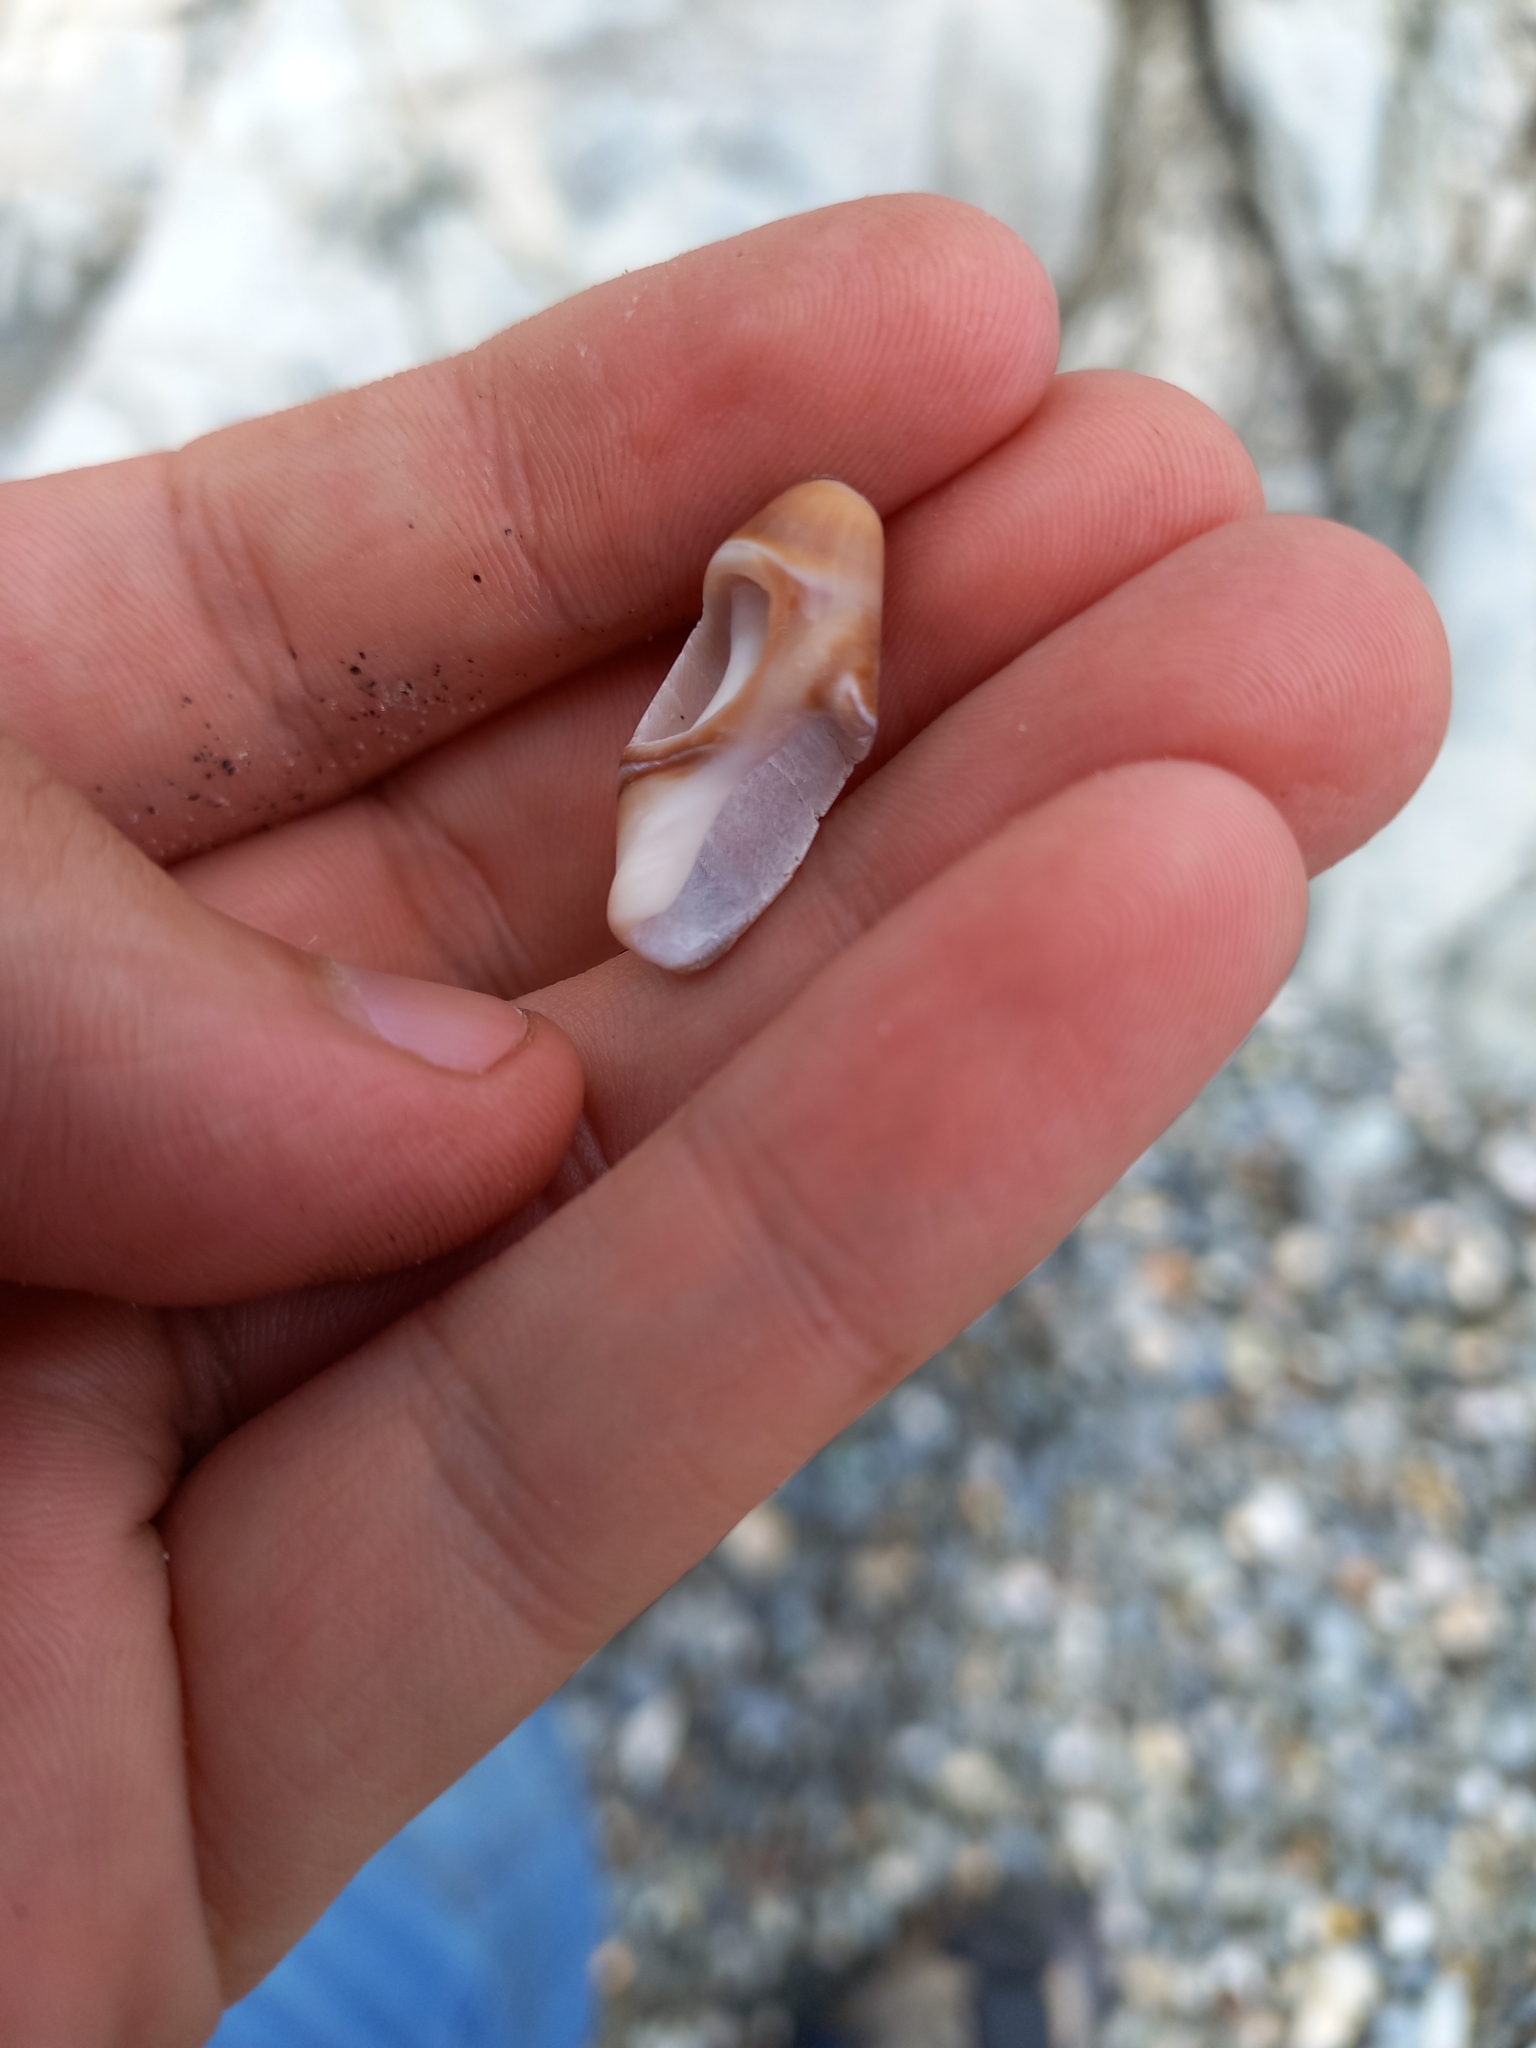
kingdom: Animalia
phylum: Mollusca
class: Gastropoda
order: Neogastropoda
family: Ancillariidae
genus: Amalda
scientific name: Amalda australis
